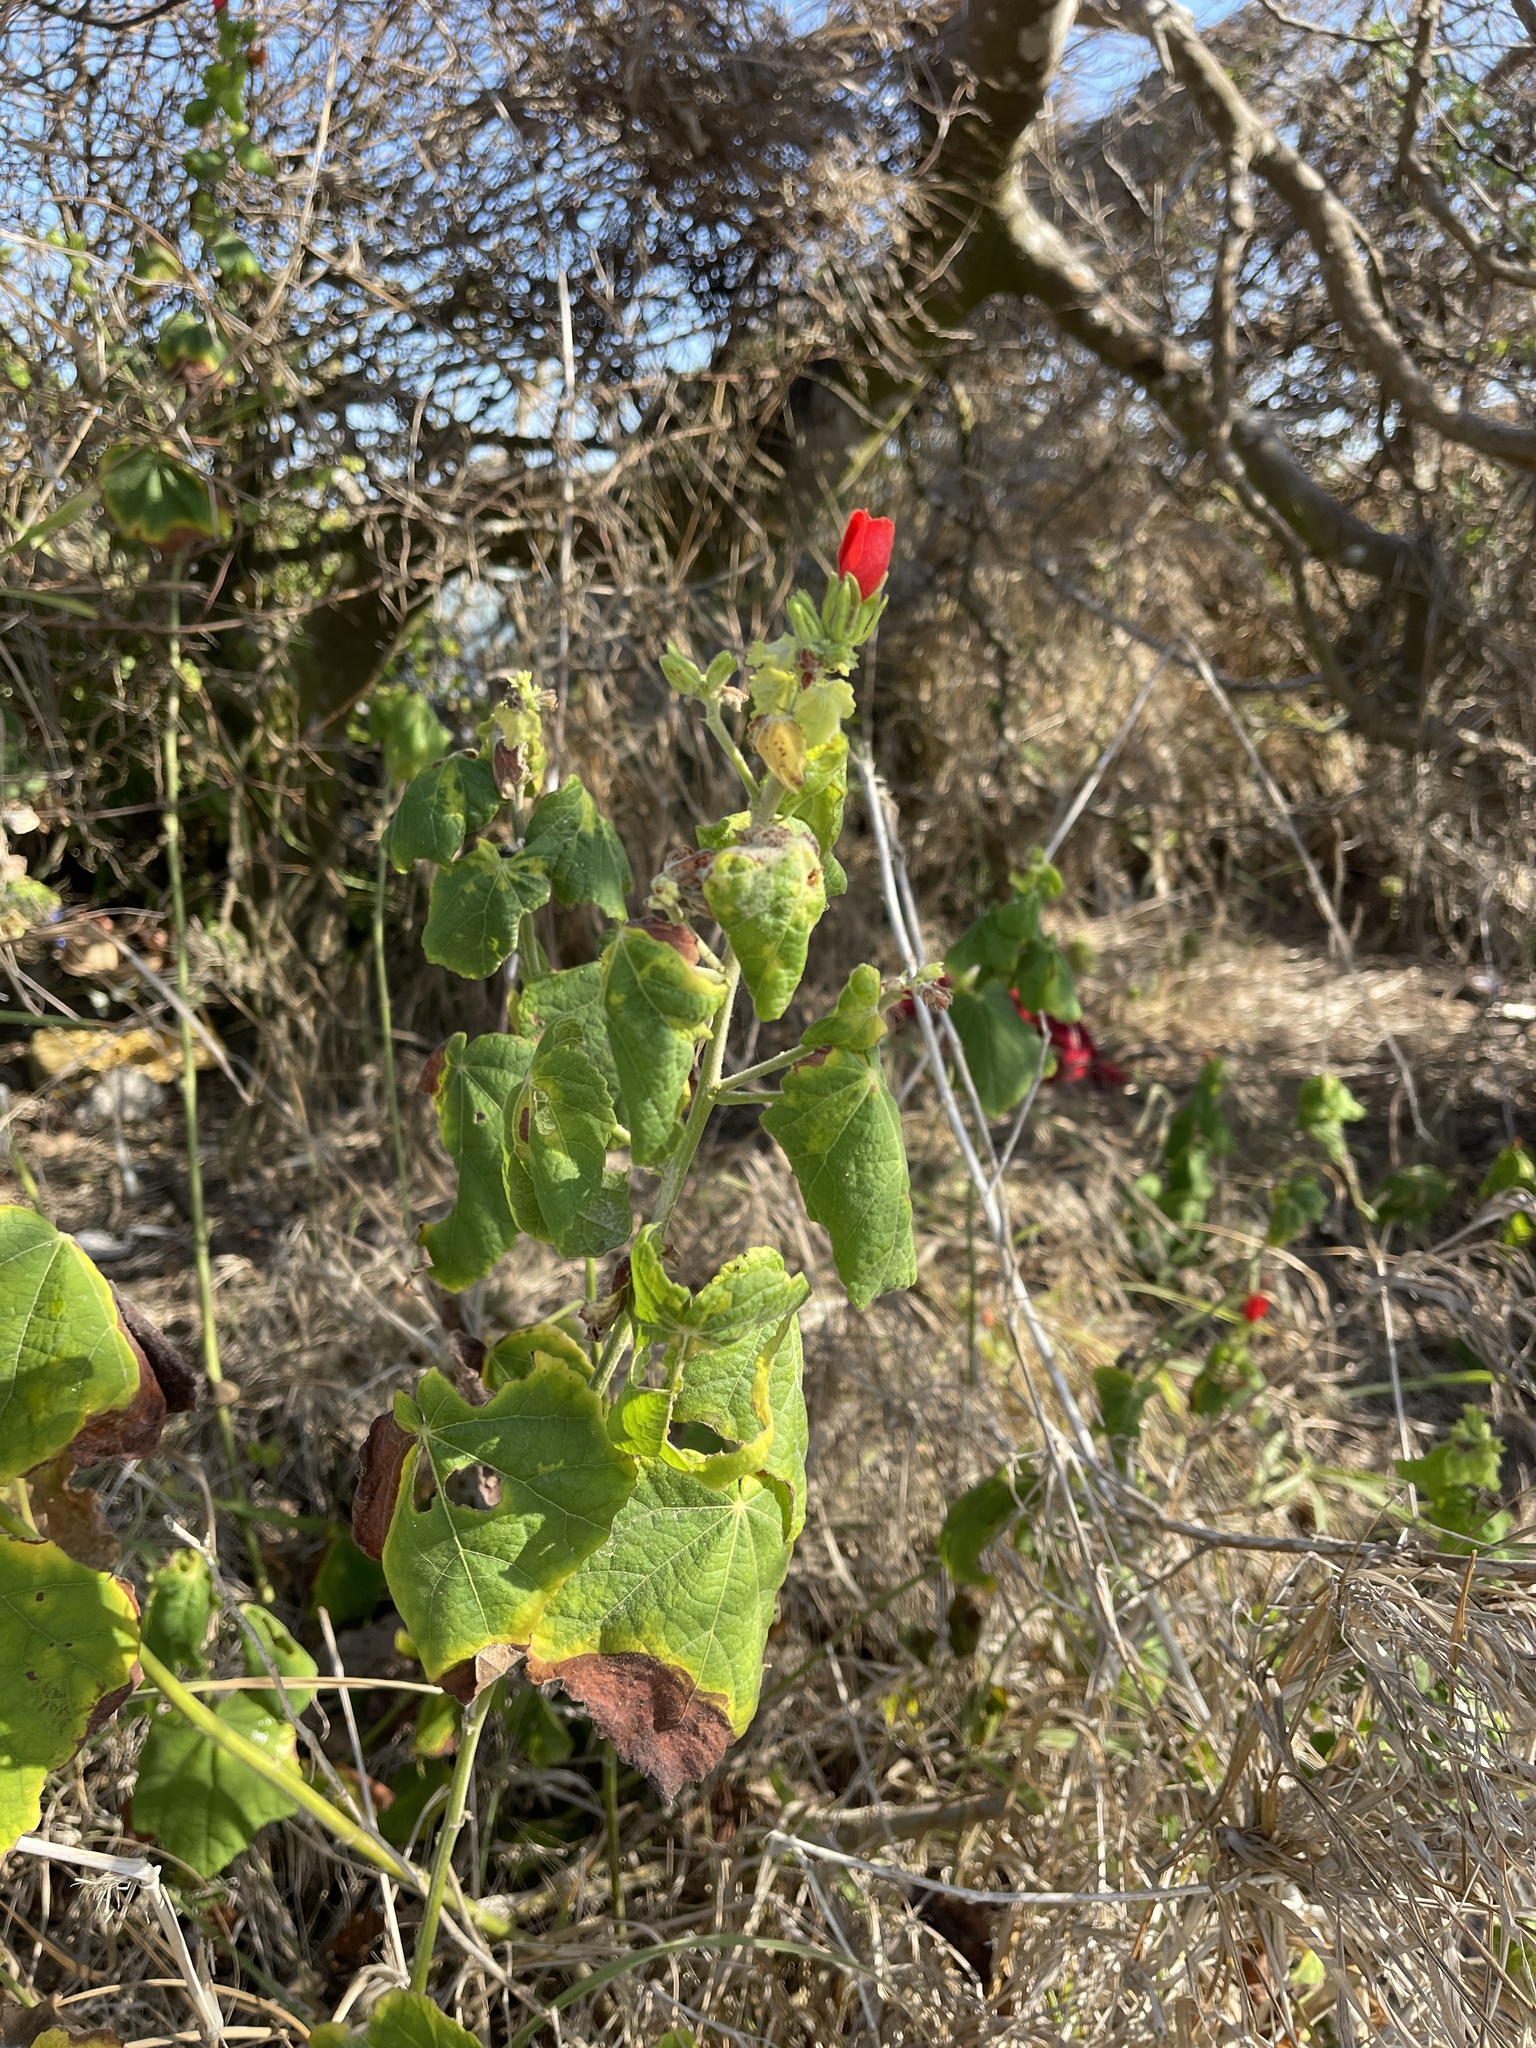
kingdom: Plantae
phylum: Tracheophyta
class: Magnoliopsida
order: Malvales
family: Malvaceae
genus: Malvaviscus
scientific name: Malvaviscus arboreus
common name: Wax mallow
